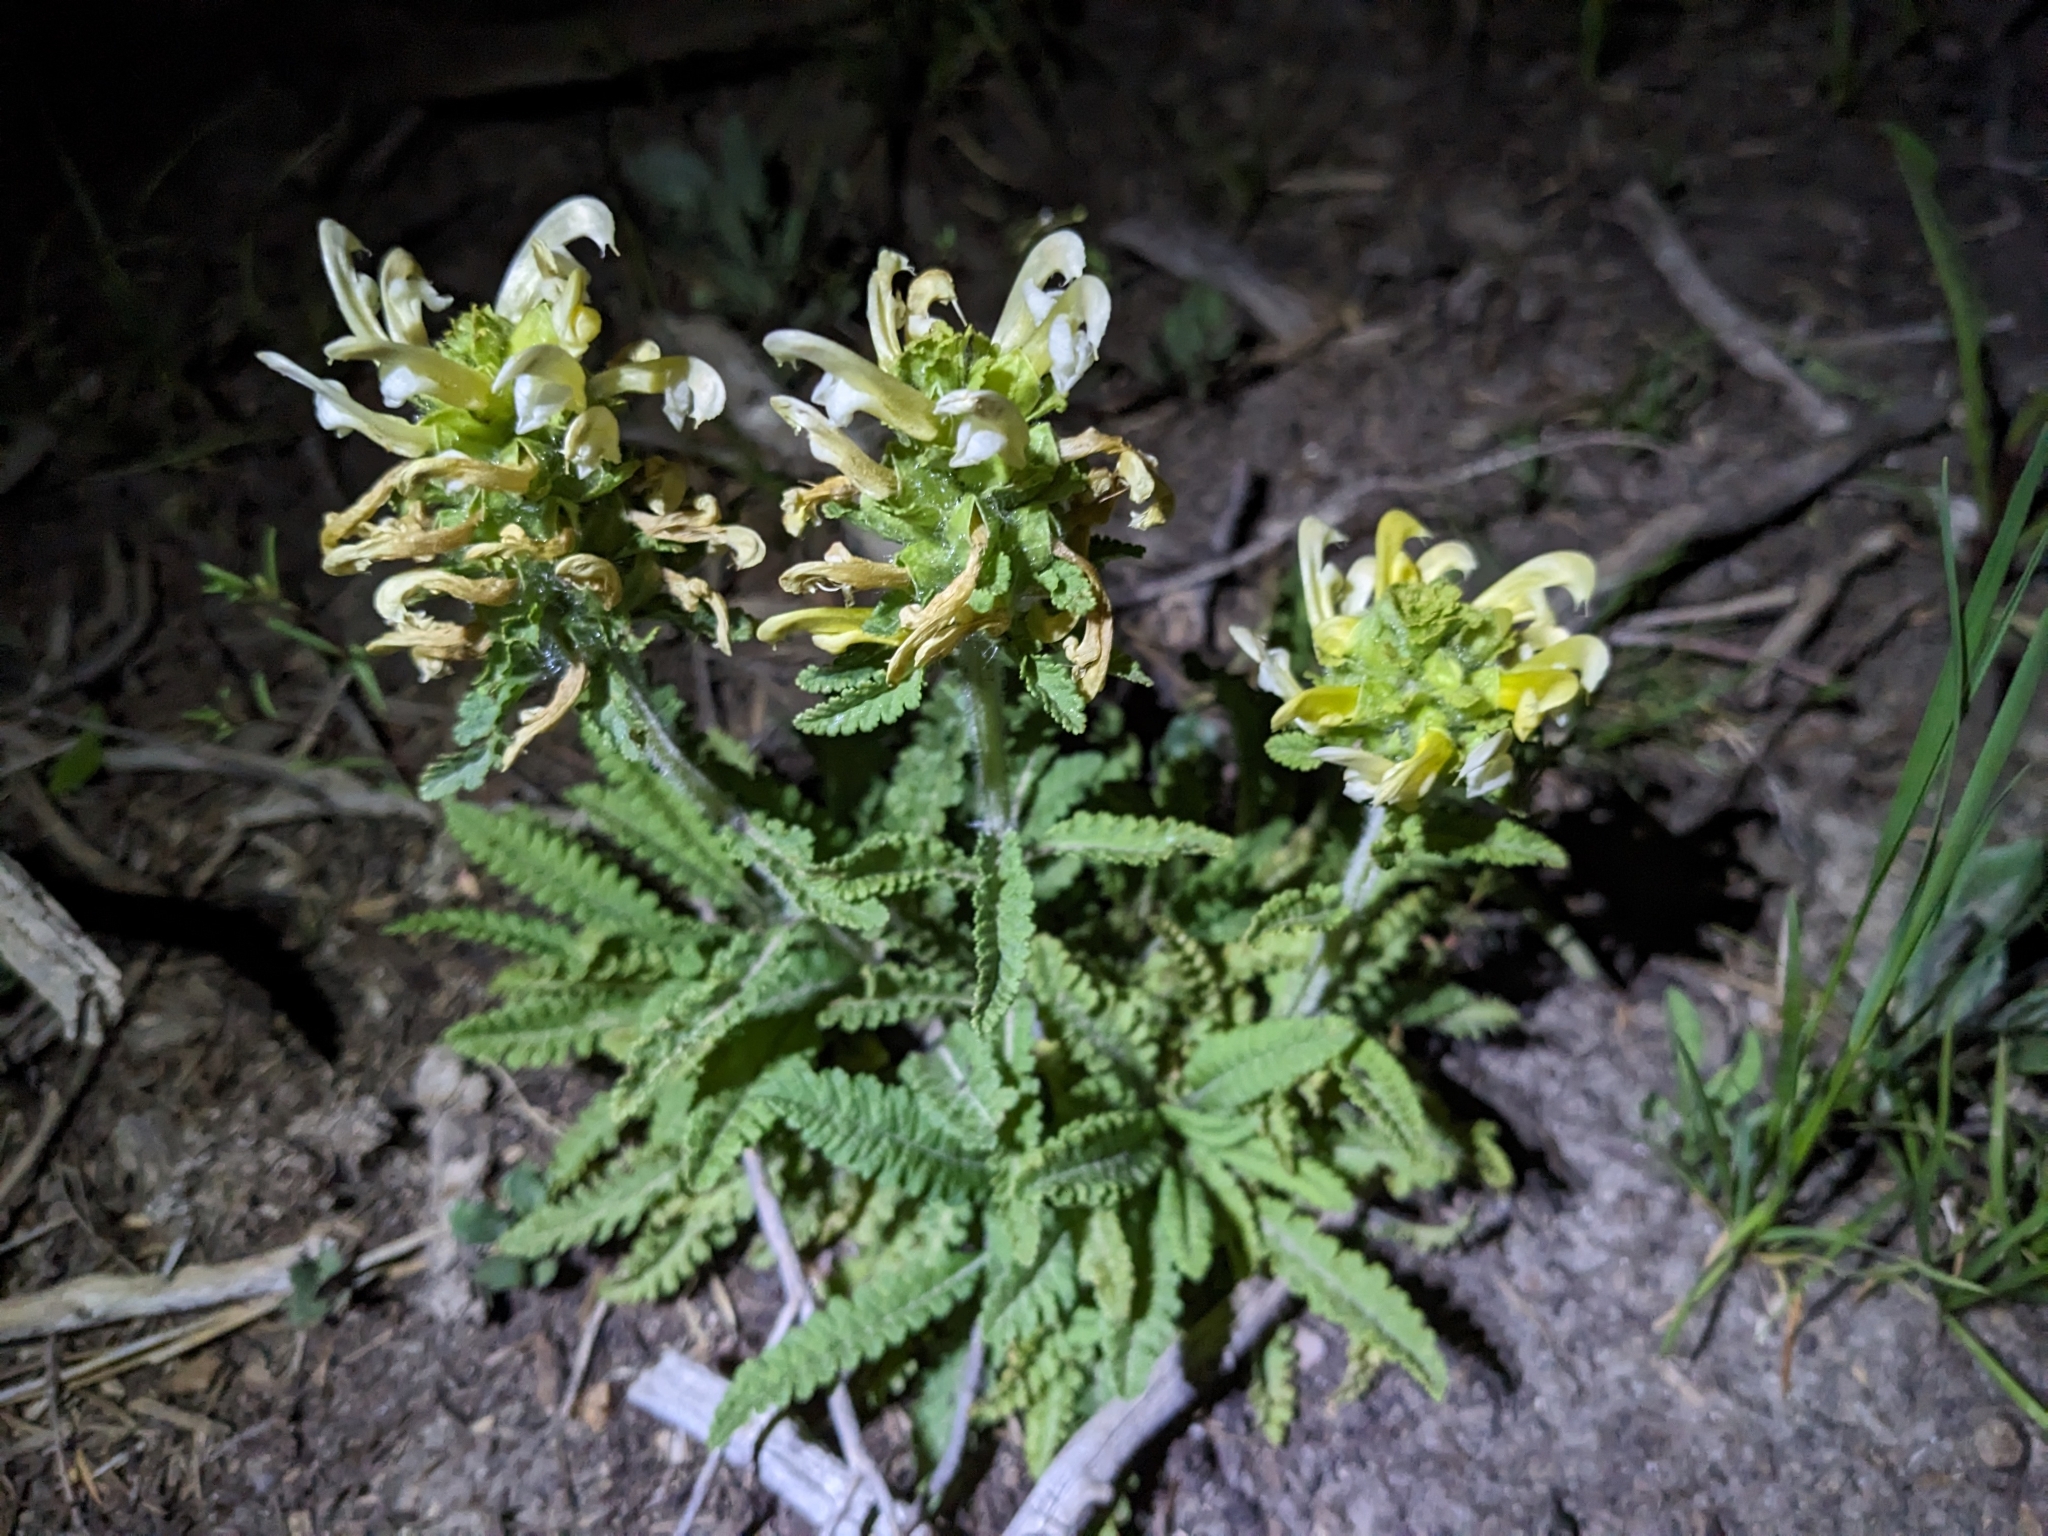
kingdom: Plantae
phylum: Tracheophyta
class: Magnoliopsida
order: Lamiales
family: Orobanchaceae
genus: Pedicularis
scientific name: Pedicularis canadensis
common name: Early lousewort
